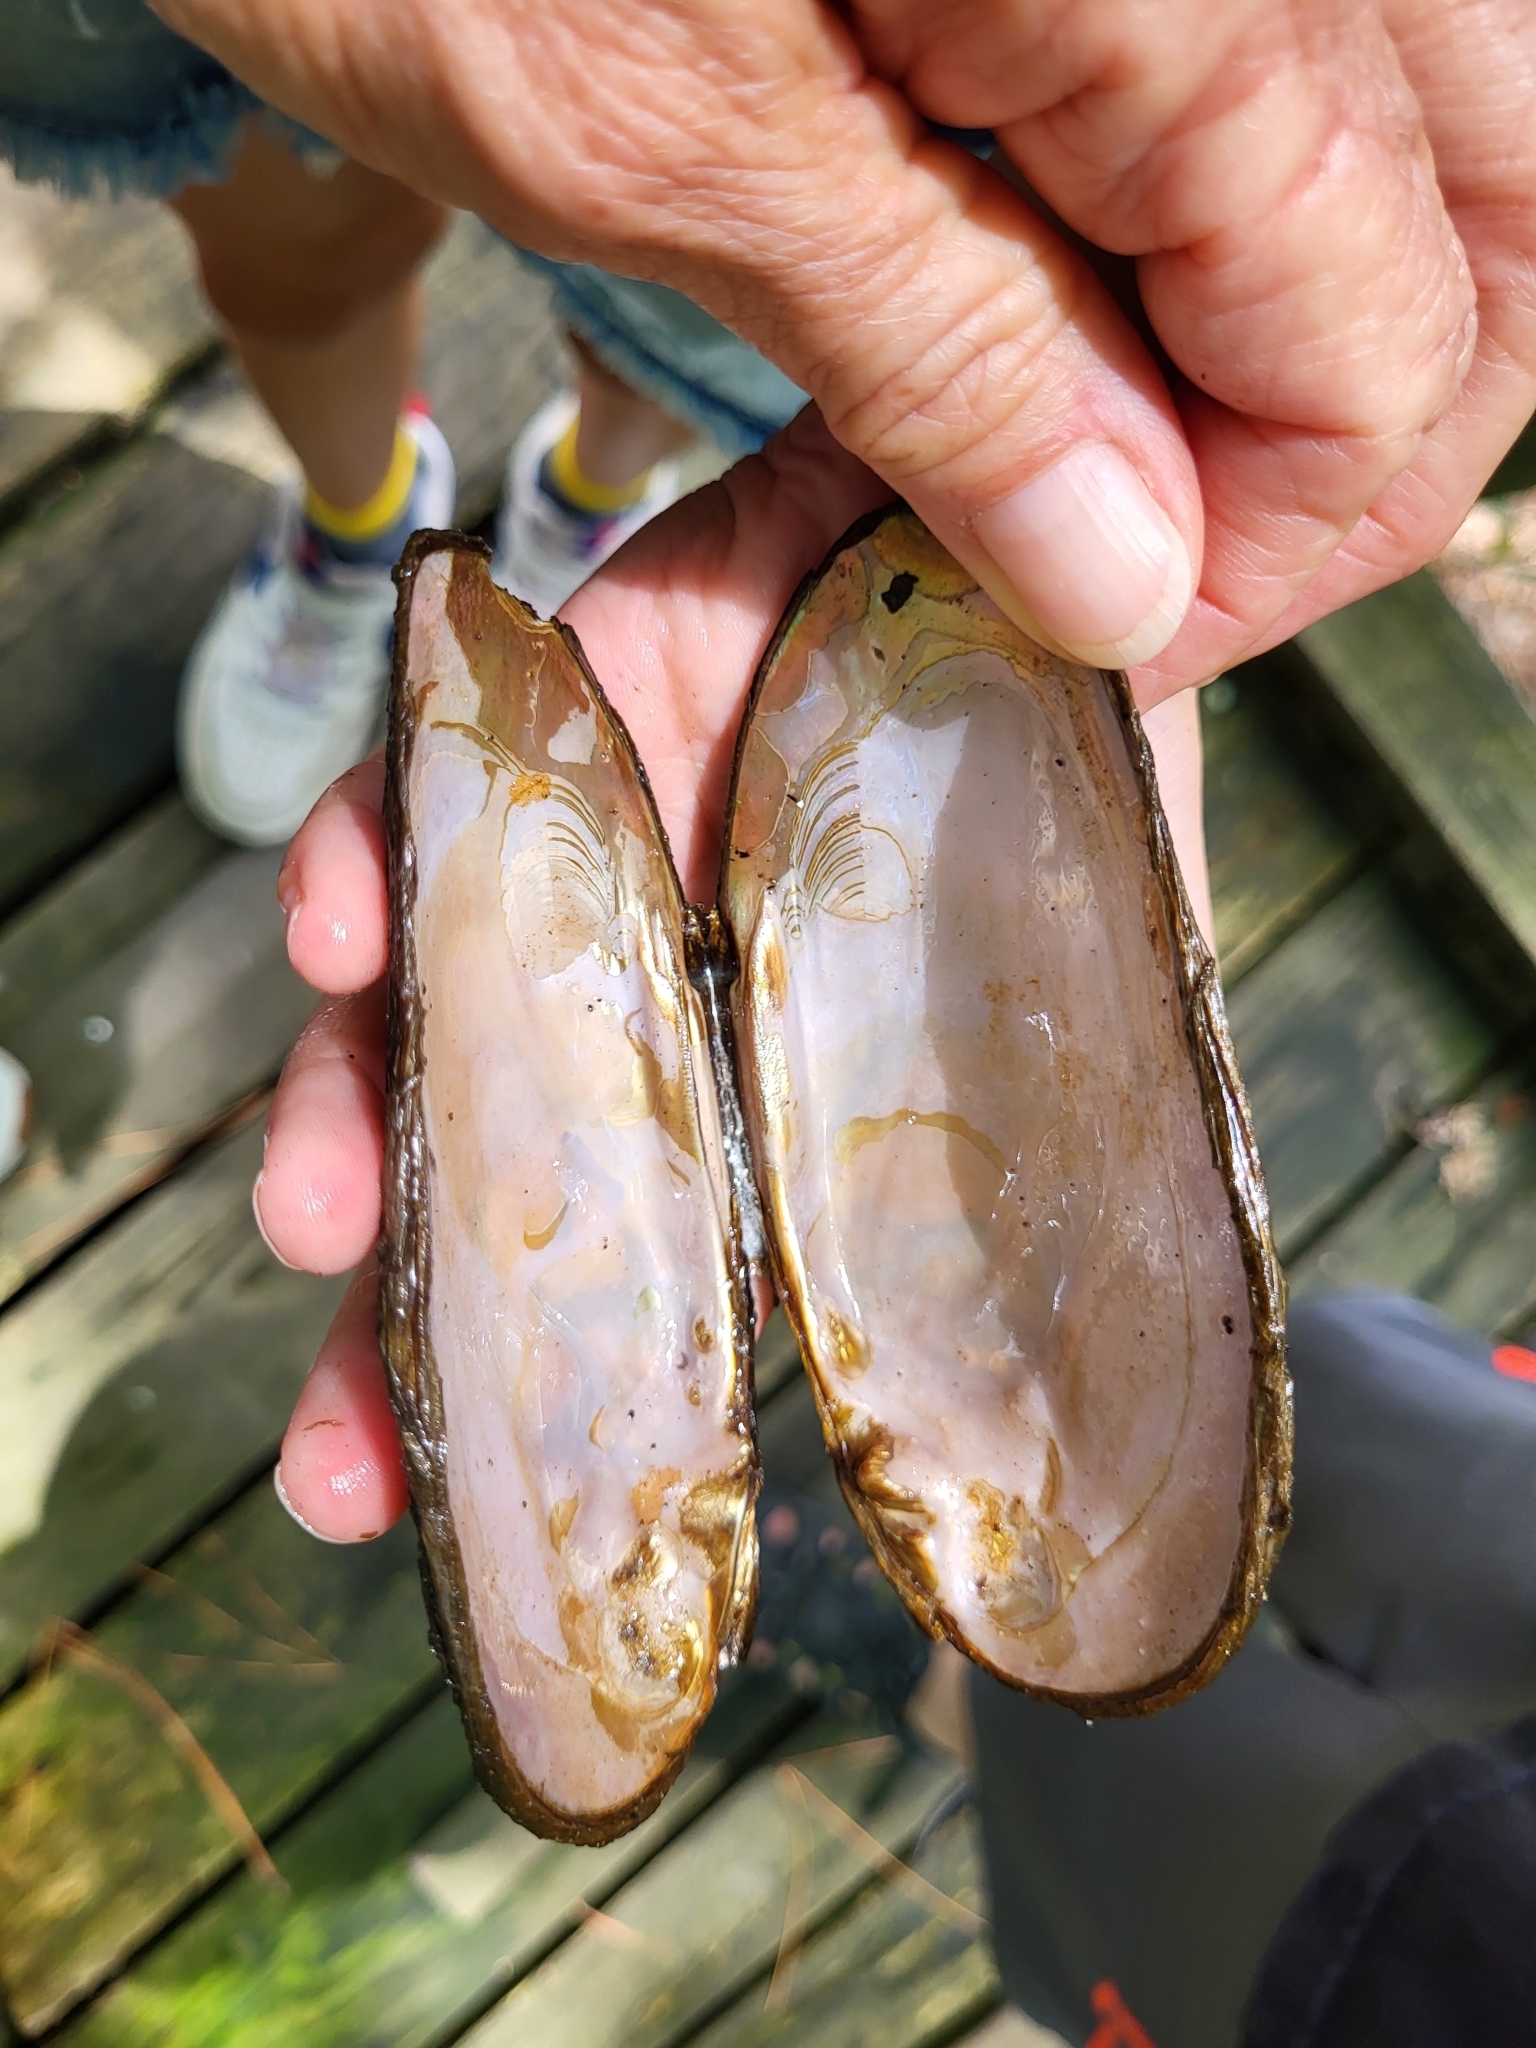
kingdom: Animalia
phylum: Mollusca
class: Bivalvia
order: Unionida
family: Unionidae
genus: Elliptio
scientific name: Elliptio complanata
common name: Eastern elliptio
